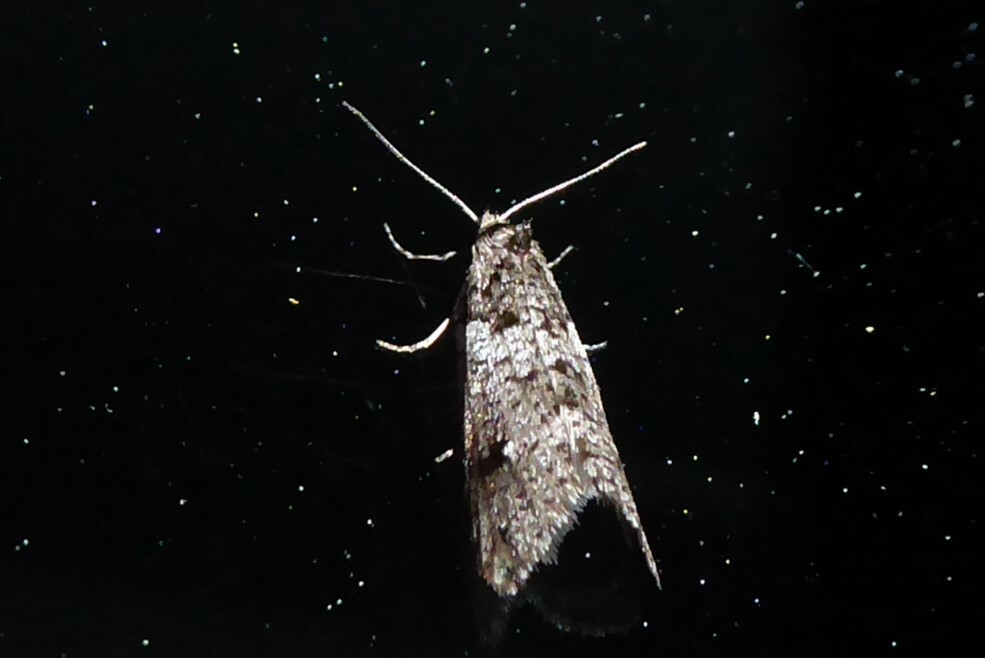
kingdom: Animalia
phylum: Arthropoda
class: Insecta
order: Lepidoptera
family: Psychidae
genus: Lepidoscia
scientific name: Lepidoscia heliochares
